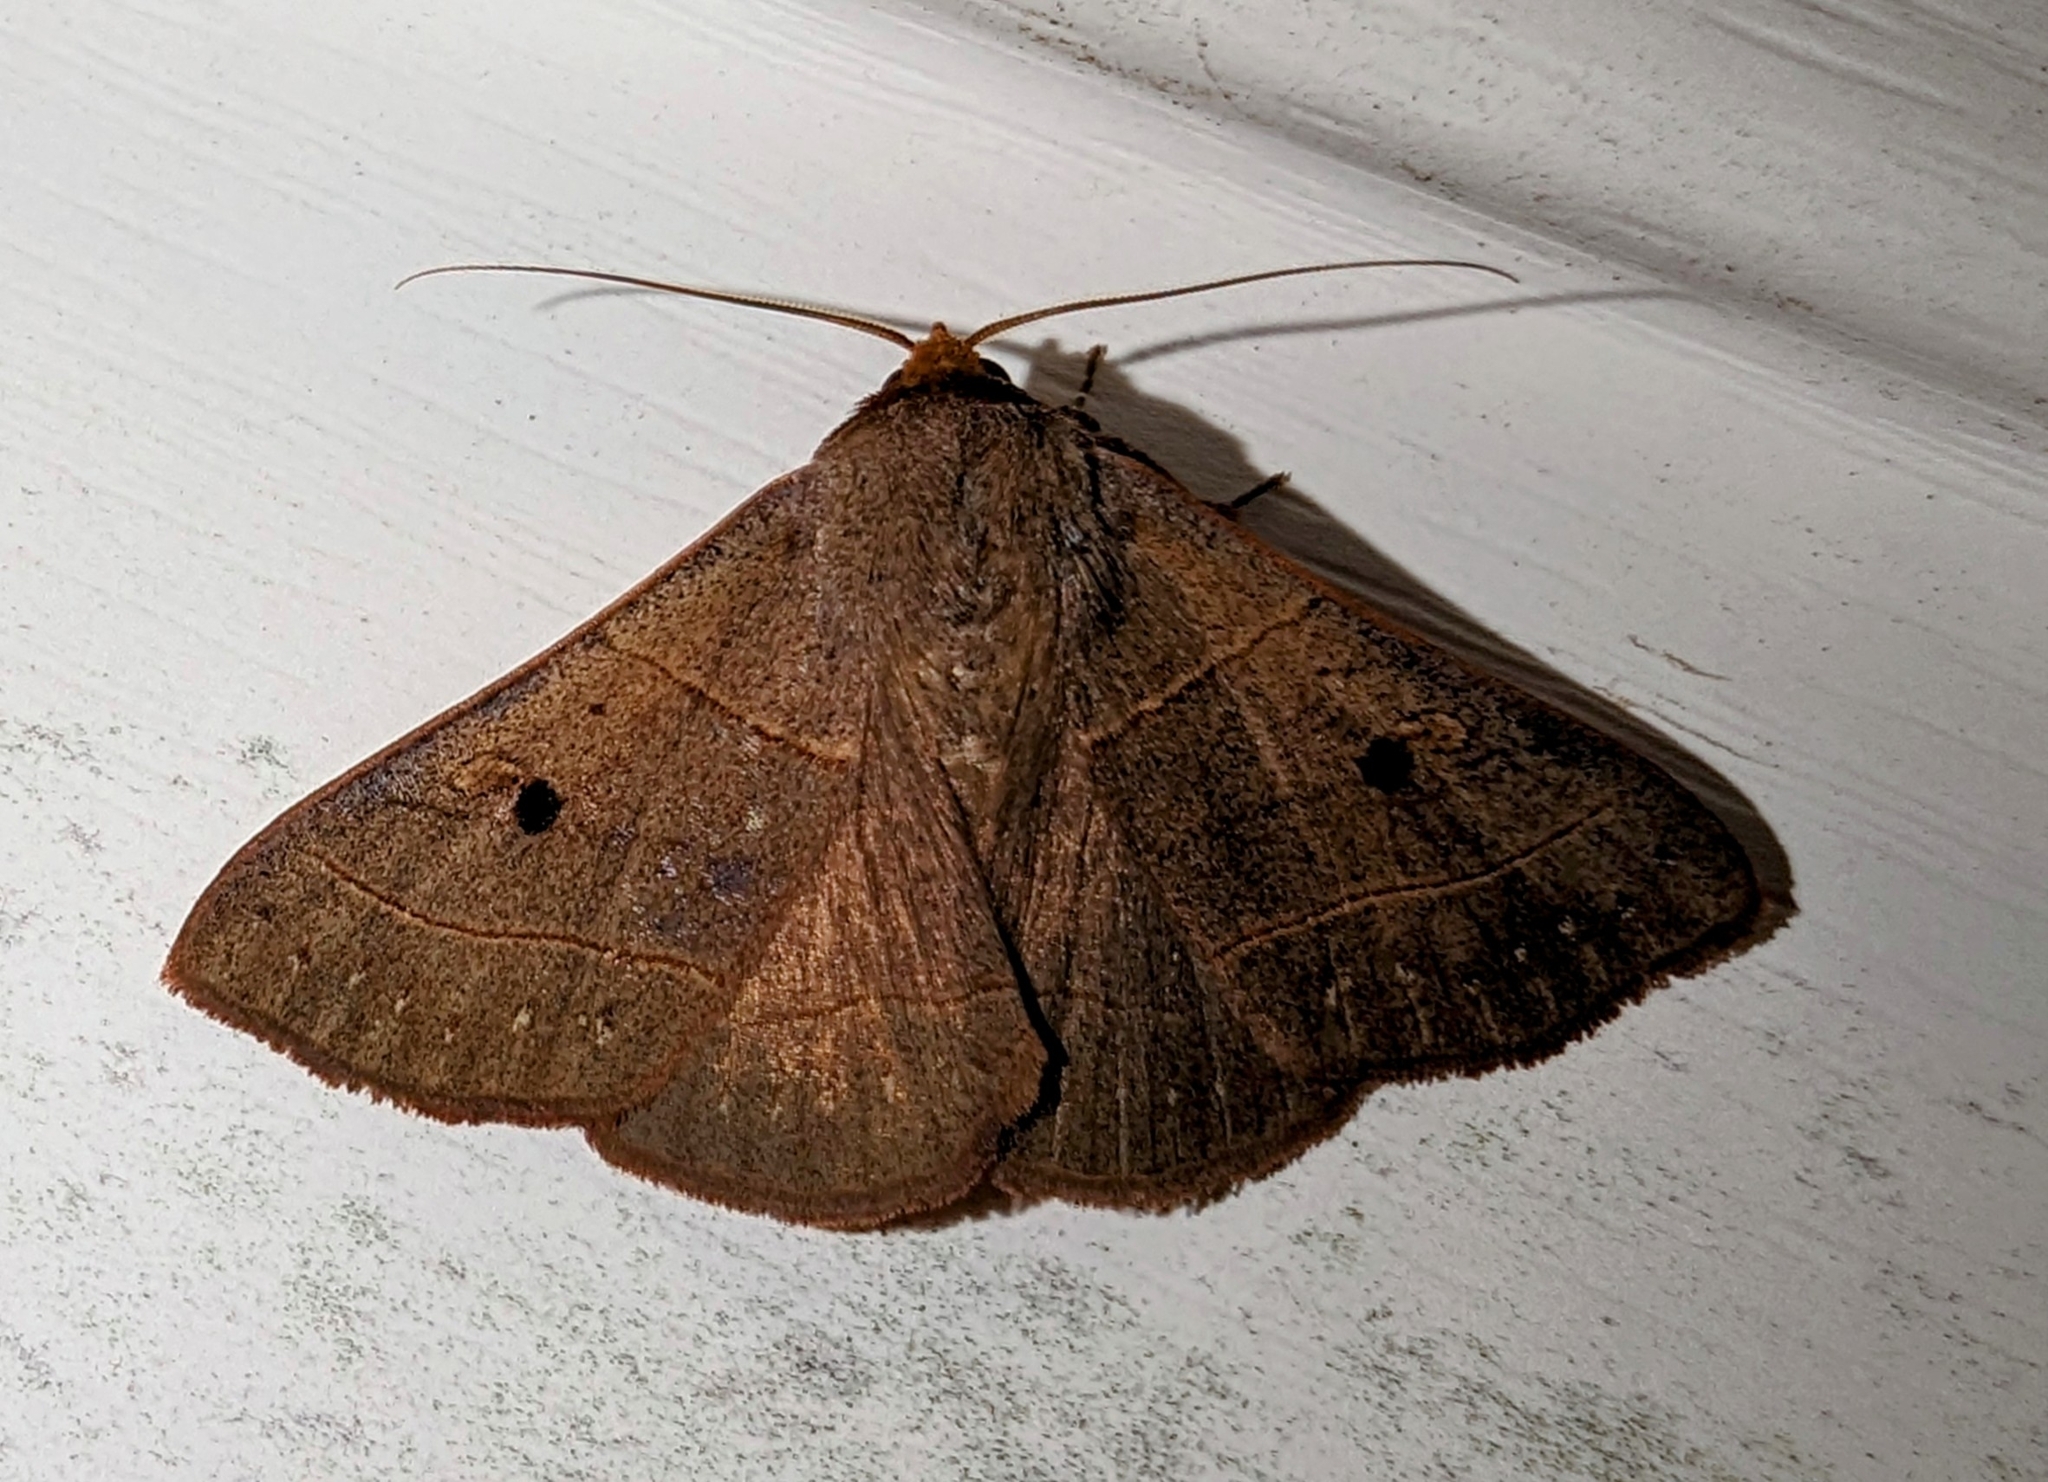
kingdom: Animalia
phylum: Arthropoda
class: Insecta
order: Lepidoptera
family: Erebidae
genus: Panopoda
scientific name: Panopoda rufimargo
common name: Red-lined panopoda moth
